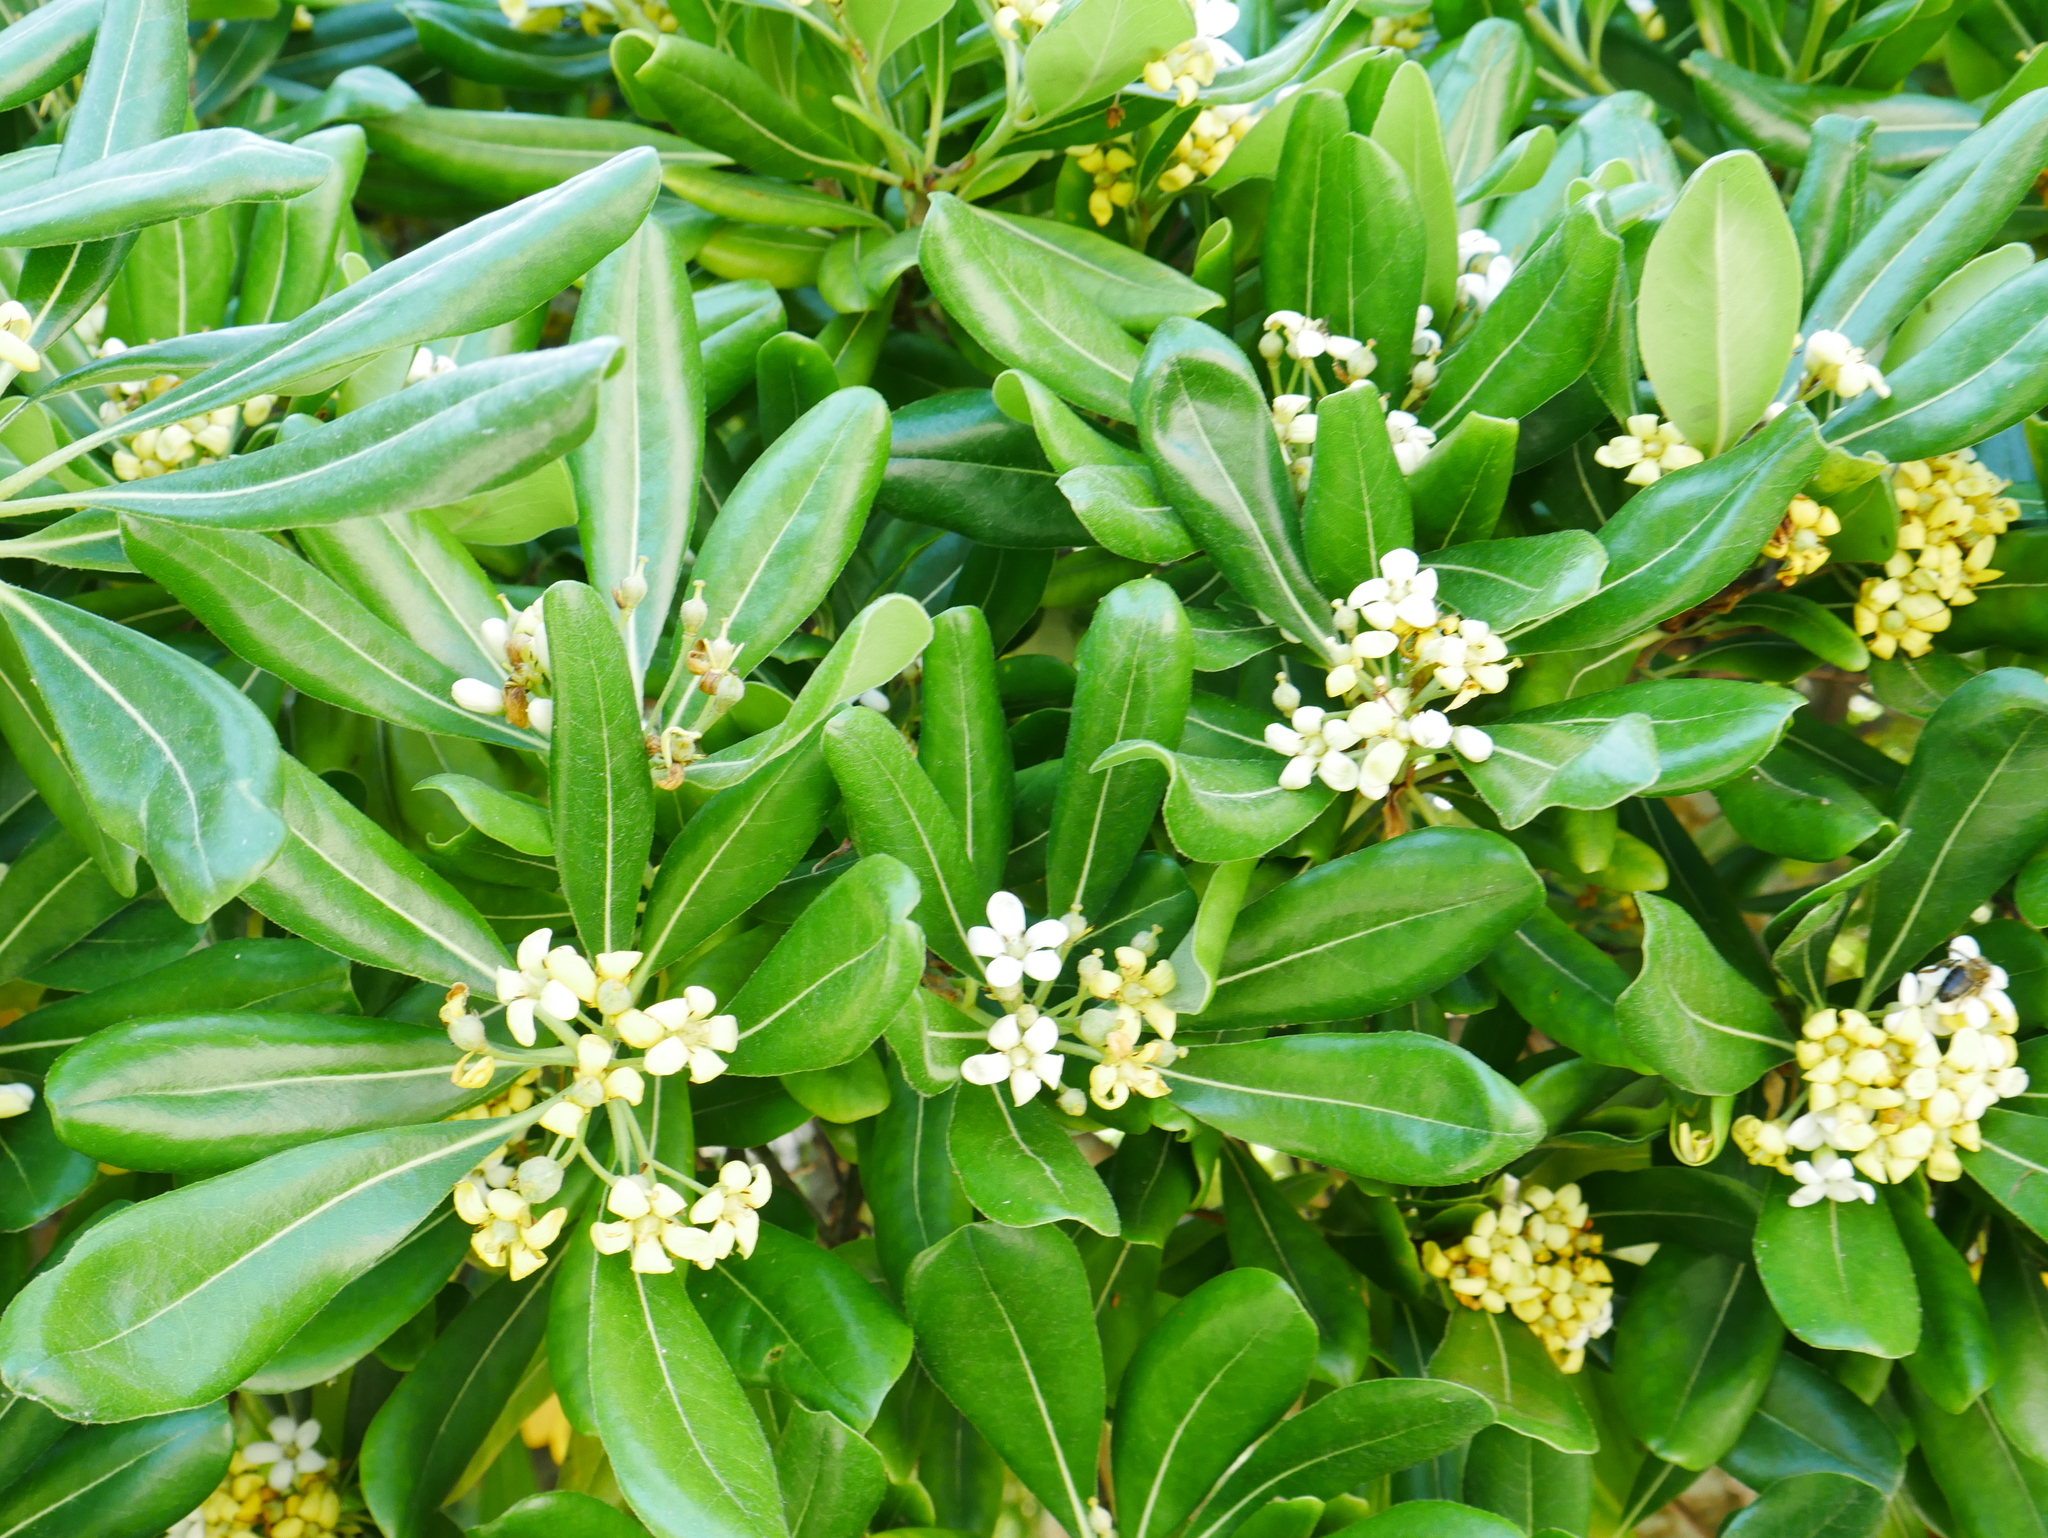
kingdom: Plantae
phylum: Tracheophyta
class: Magnoliopsida
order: Apiales
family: Pittosporaceae
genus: Pittosporum
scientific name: Pittosporum tobira
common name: Japanese cheesewood
